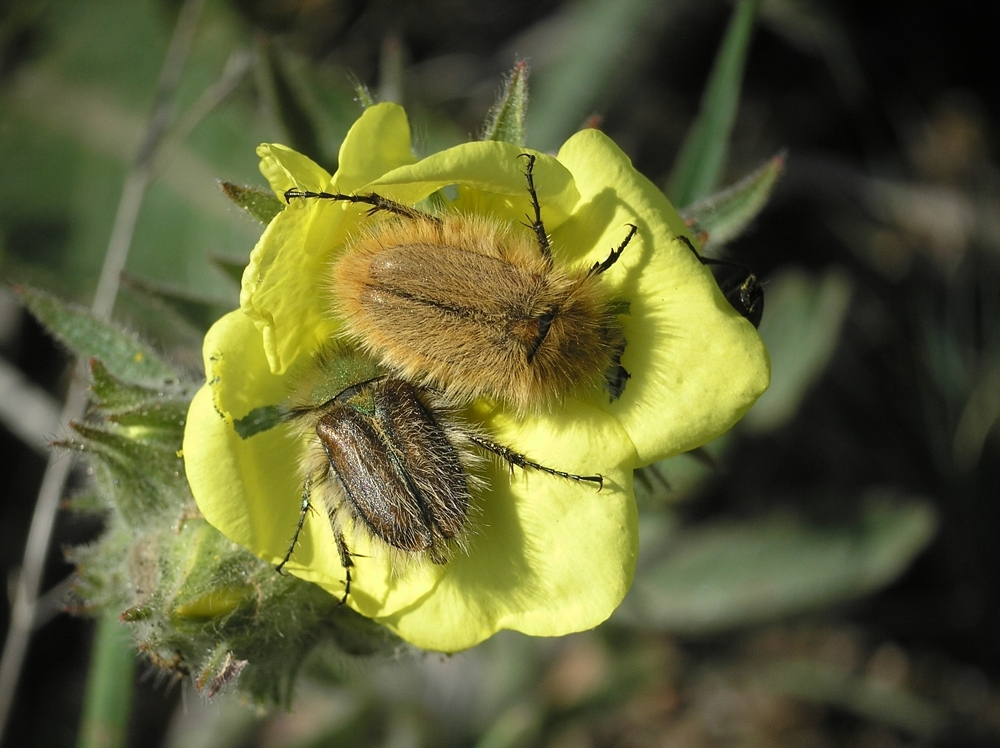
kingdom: Animalia
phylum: Arthropoda
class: Insecta
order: Coleoptera
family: Glaphyridae
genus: Pygopleurus
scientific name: Pygopleurus vulpes
